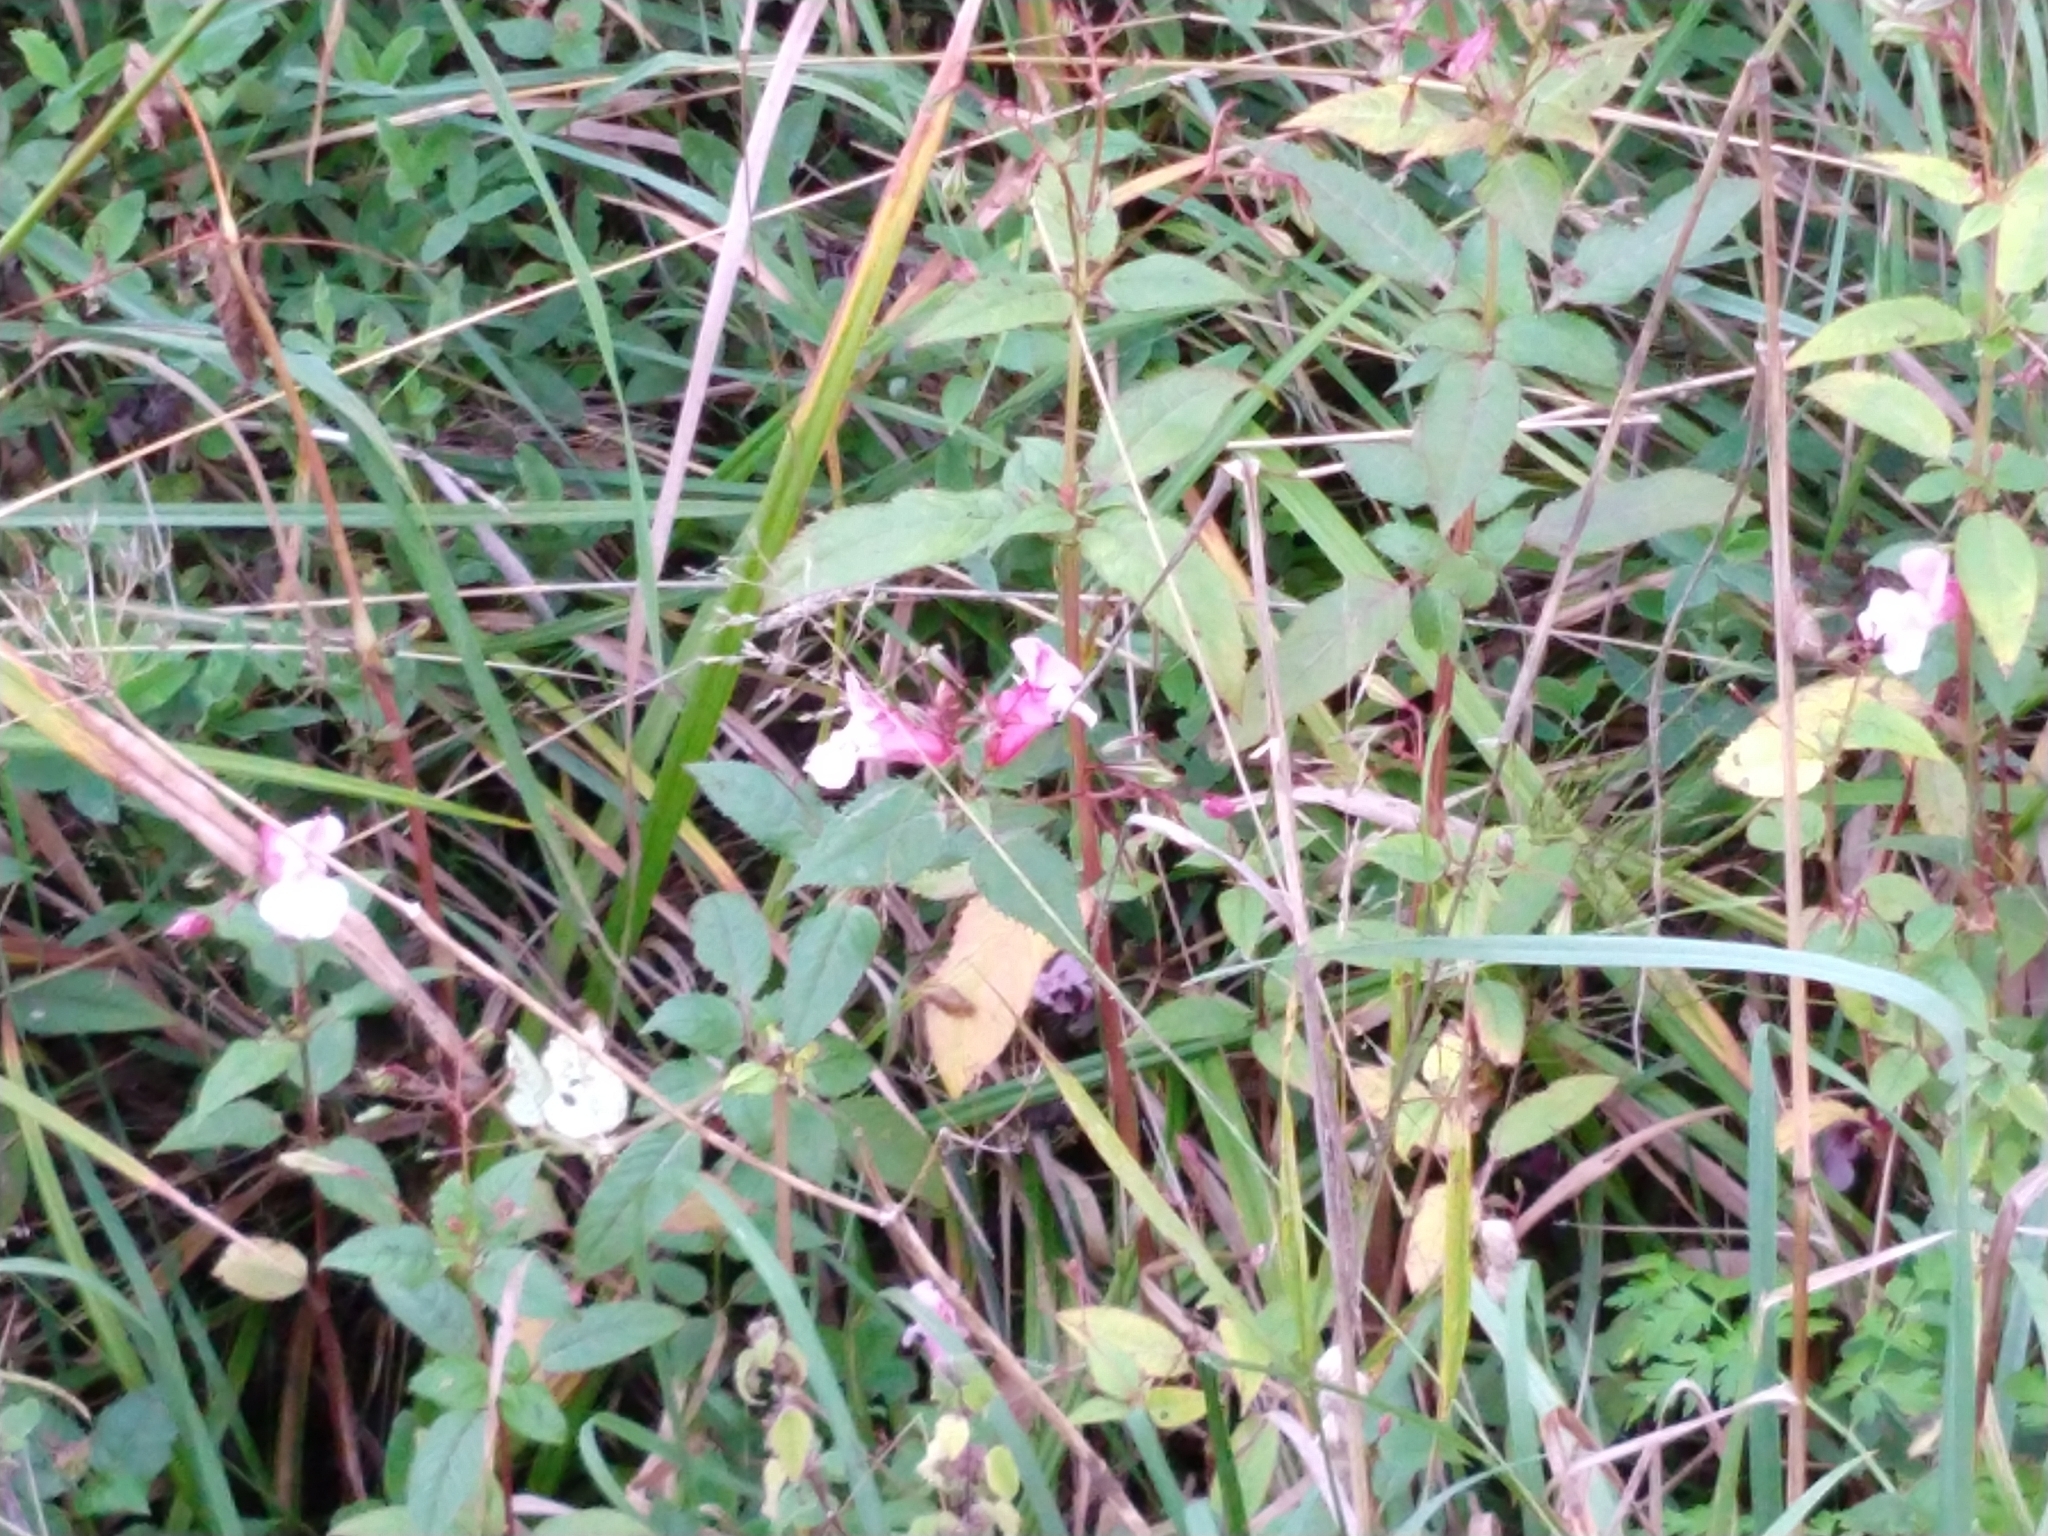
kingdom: Plantae
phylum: Tracheophyta
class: Magnoliopsida
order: Ericales
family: Balsaminaceae
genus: Impatiens
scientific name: Impatiens glandulifera
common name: Himalayan balsam
